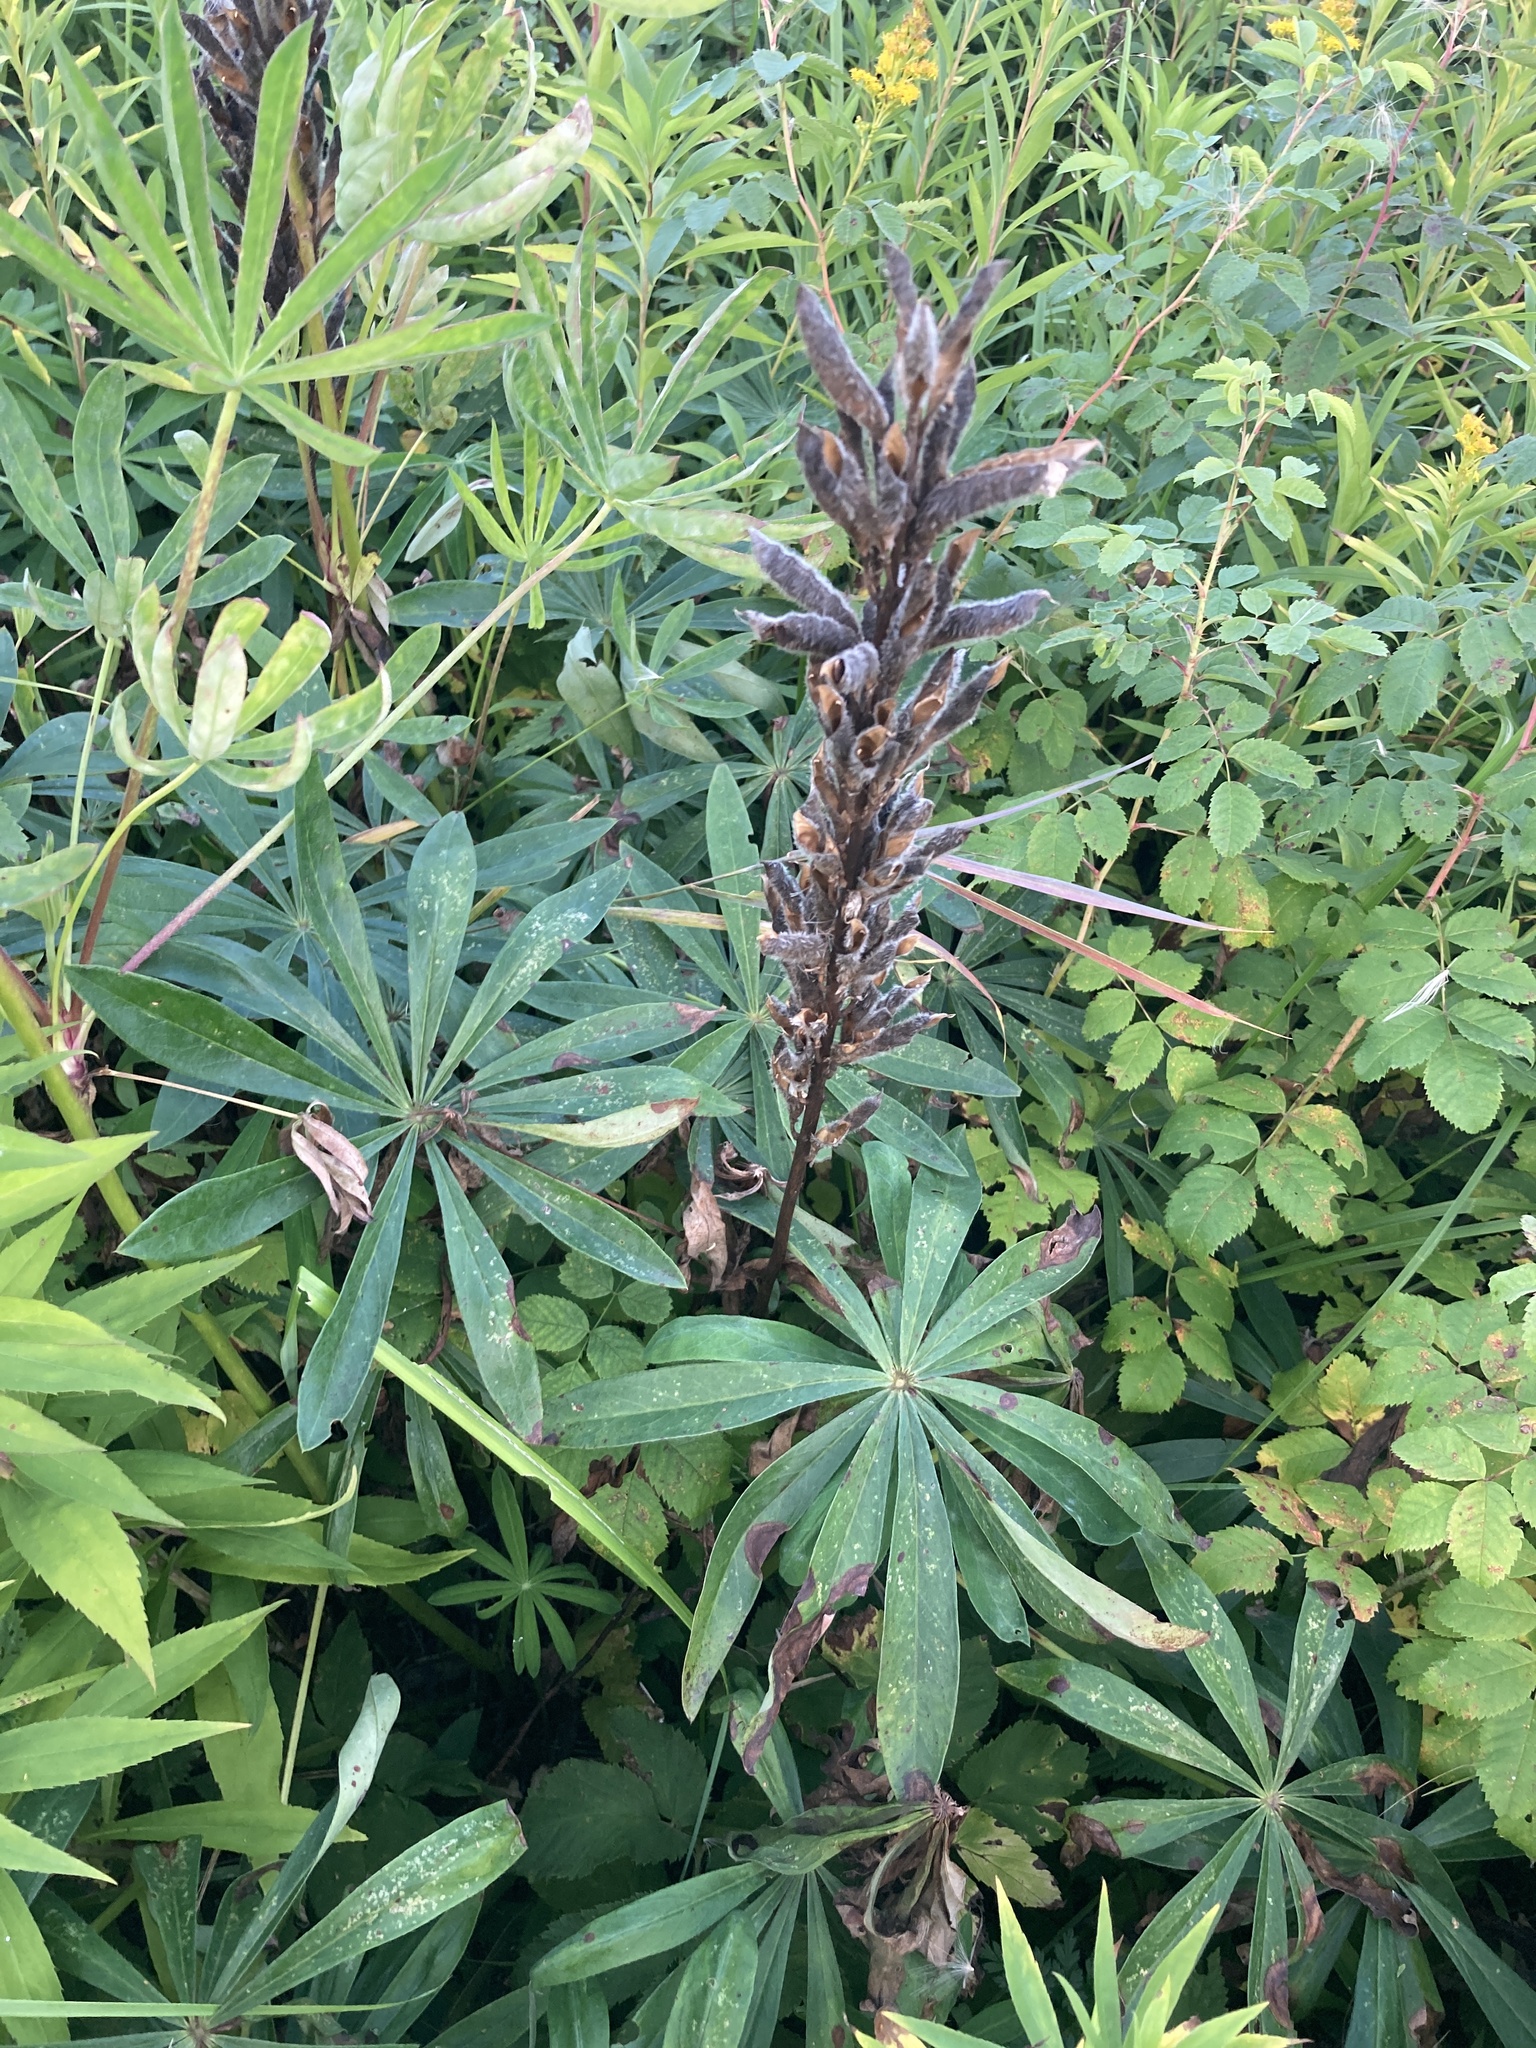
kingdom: Plantae
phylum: Tracheophyta
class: Magnoliopsida
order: Fabales
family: Fabaceae
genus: Lupinus
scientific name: Lupinus polyphyllus
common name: Garden lupin
